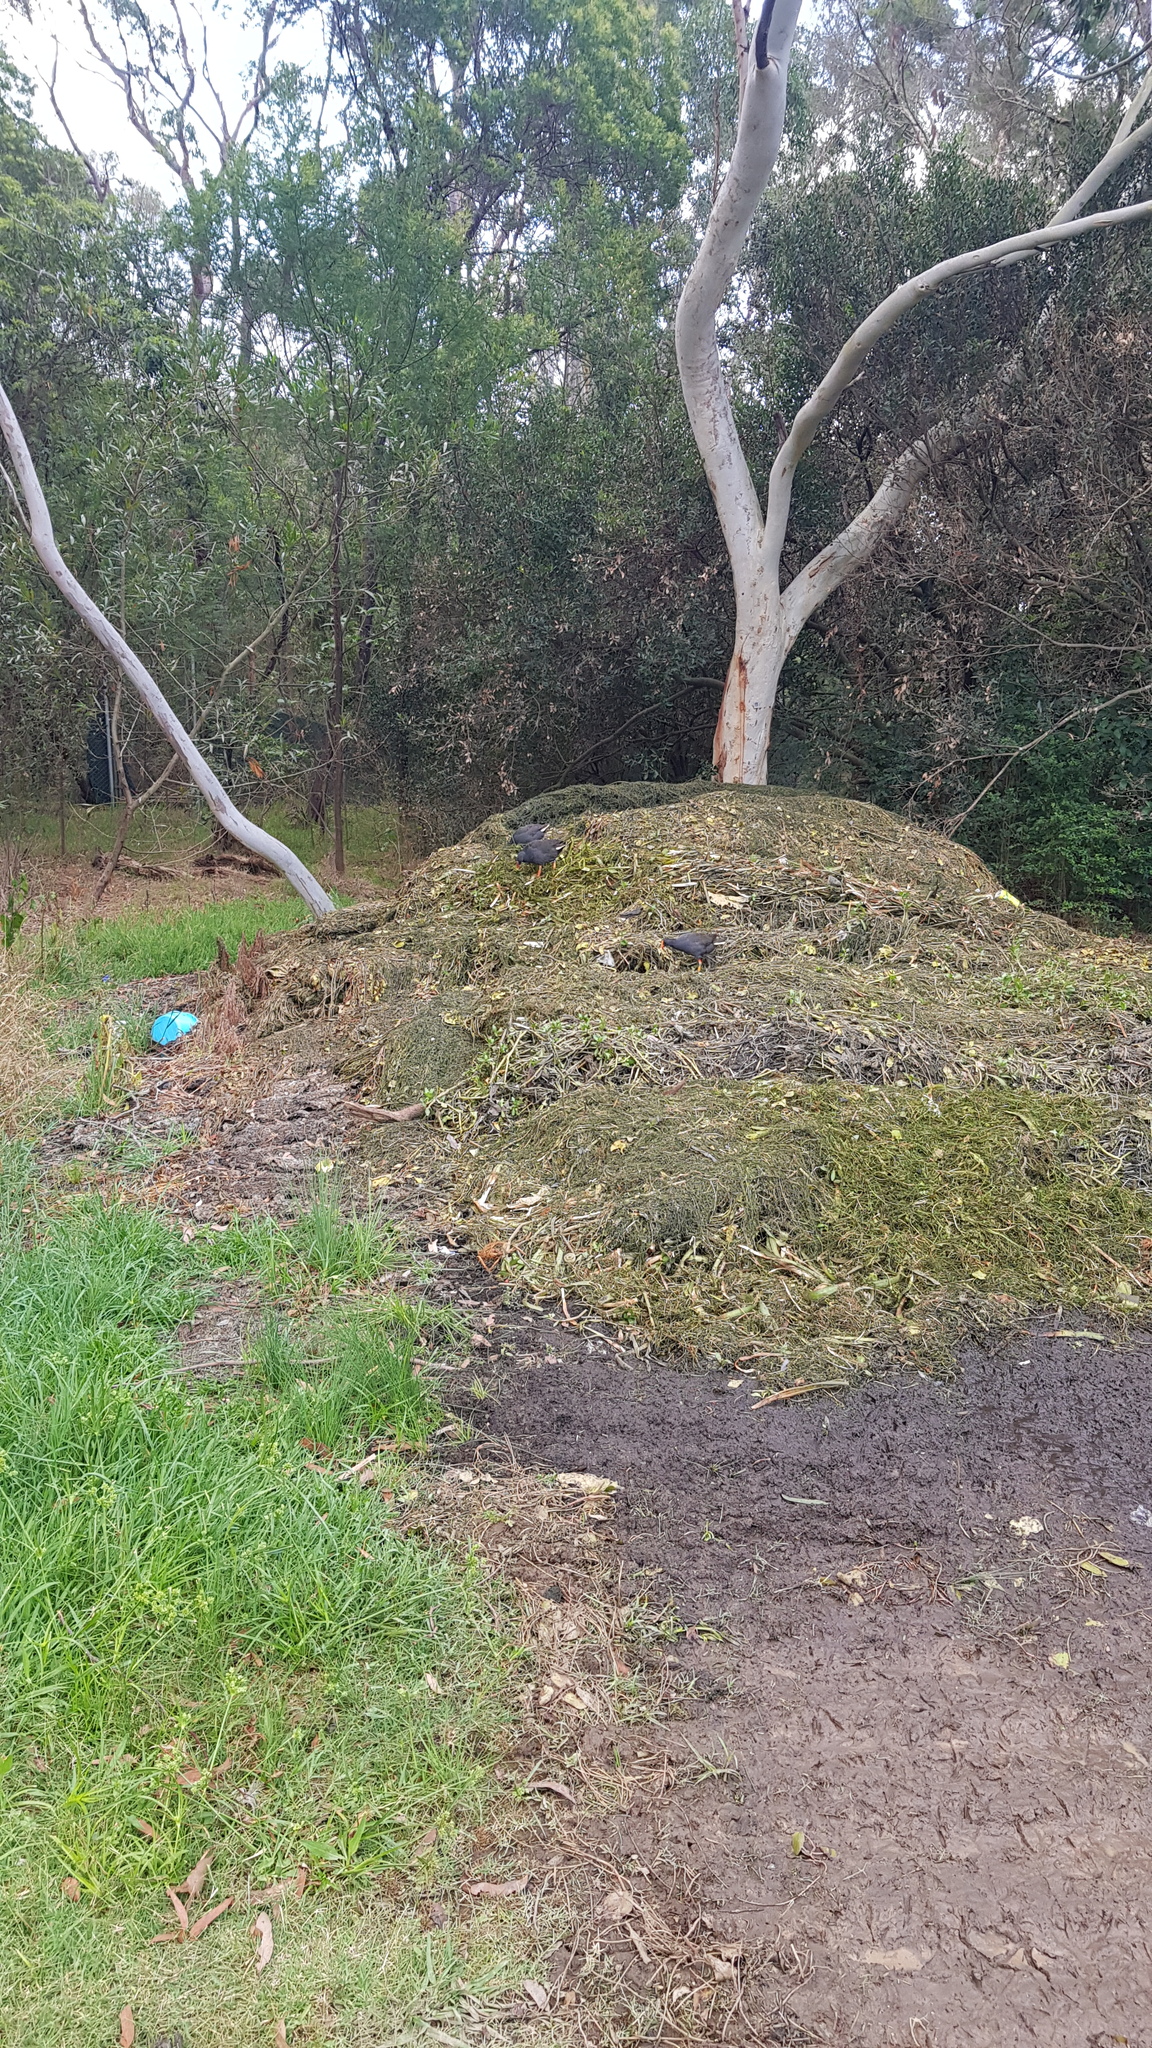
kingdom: Animalia
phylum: Chordata
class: Aves
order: Gruiformes
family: Rallidae
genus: Gallinula
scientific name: Gallinula tenebrosa
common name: Dusky moorhen
